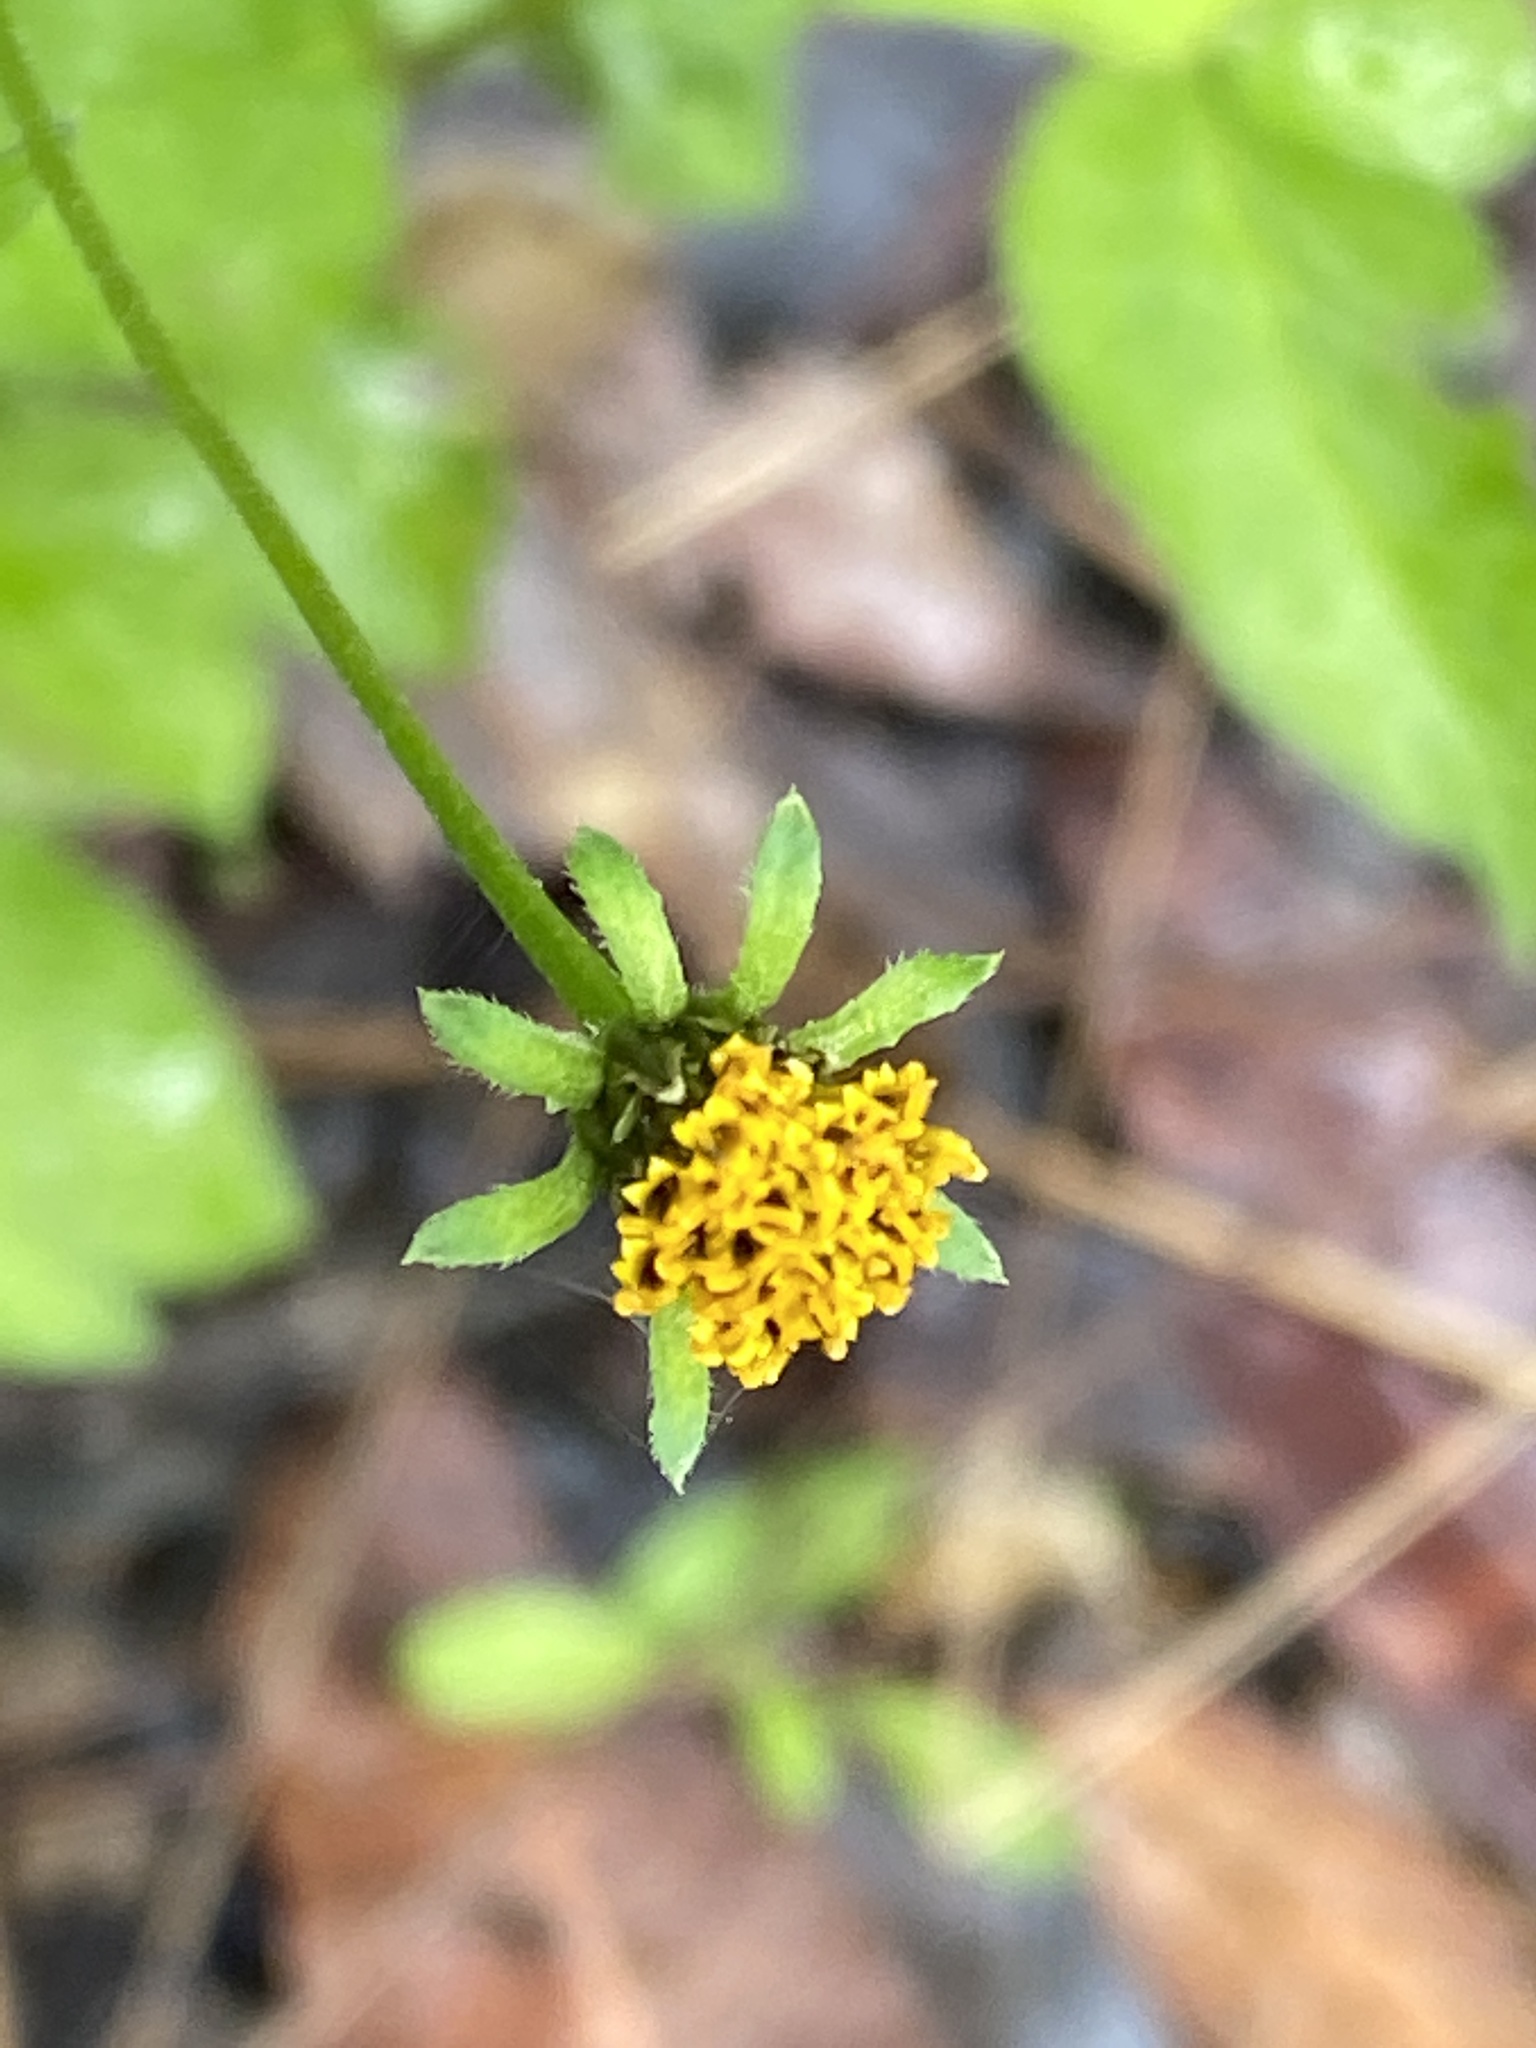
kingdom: Plantae
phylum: Tracheophyta
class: Magnoliopsida
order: Asterales
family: Asteraceae
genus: Bidens
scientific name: Bidens pilosa
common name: Black-jack
